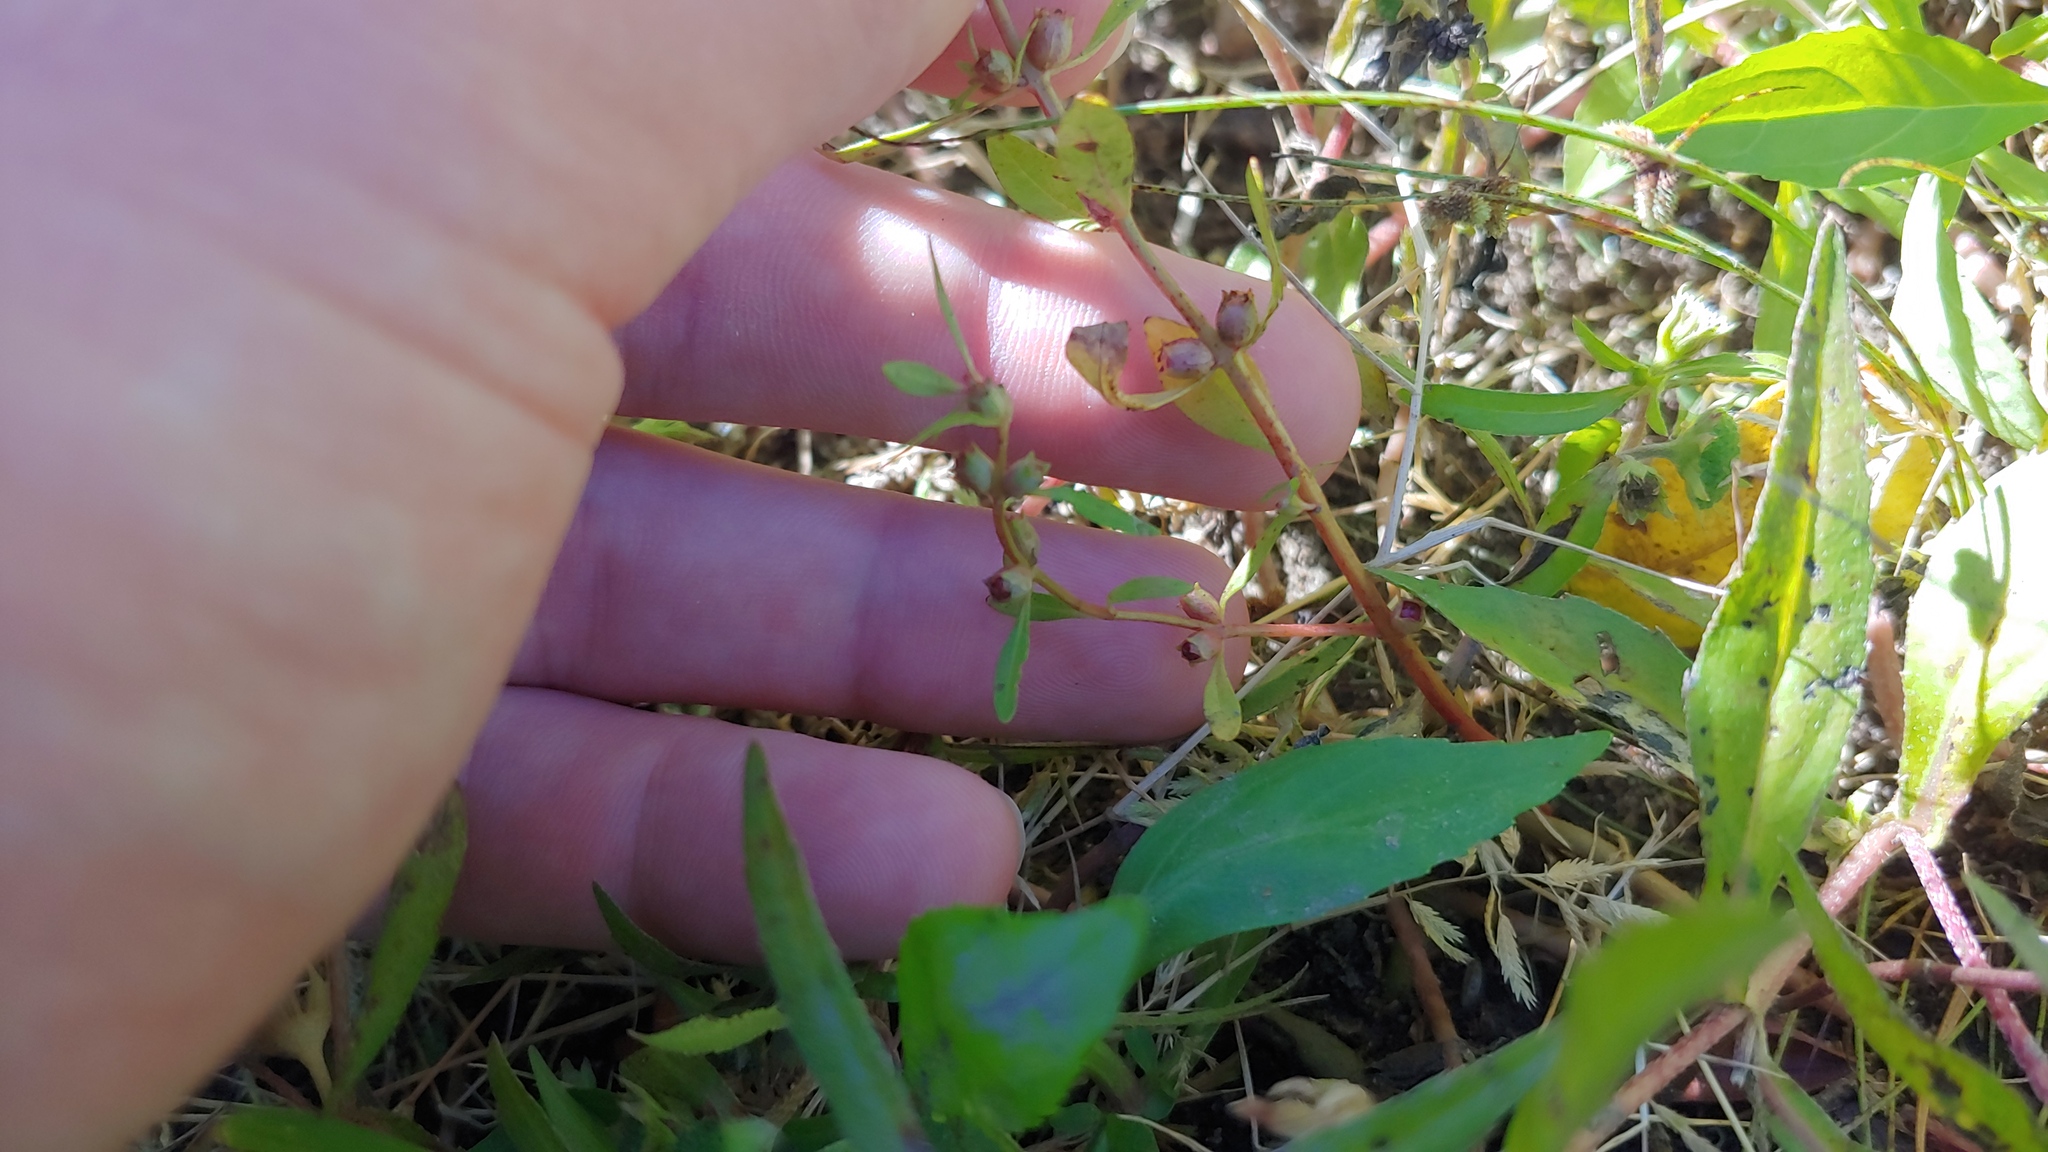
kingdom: Plantae
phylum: Tracheophyta
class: Magnoliopsida
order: Myrtales
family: Lythraceae
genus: Rotala
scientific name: Rotala ramosior
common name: Lowland rotala
